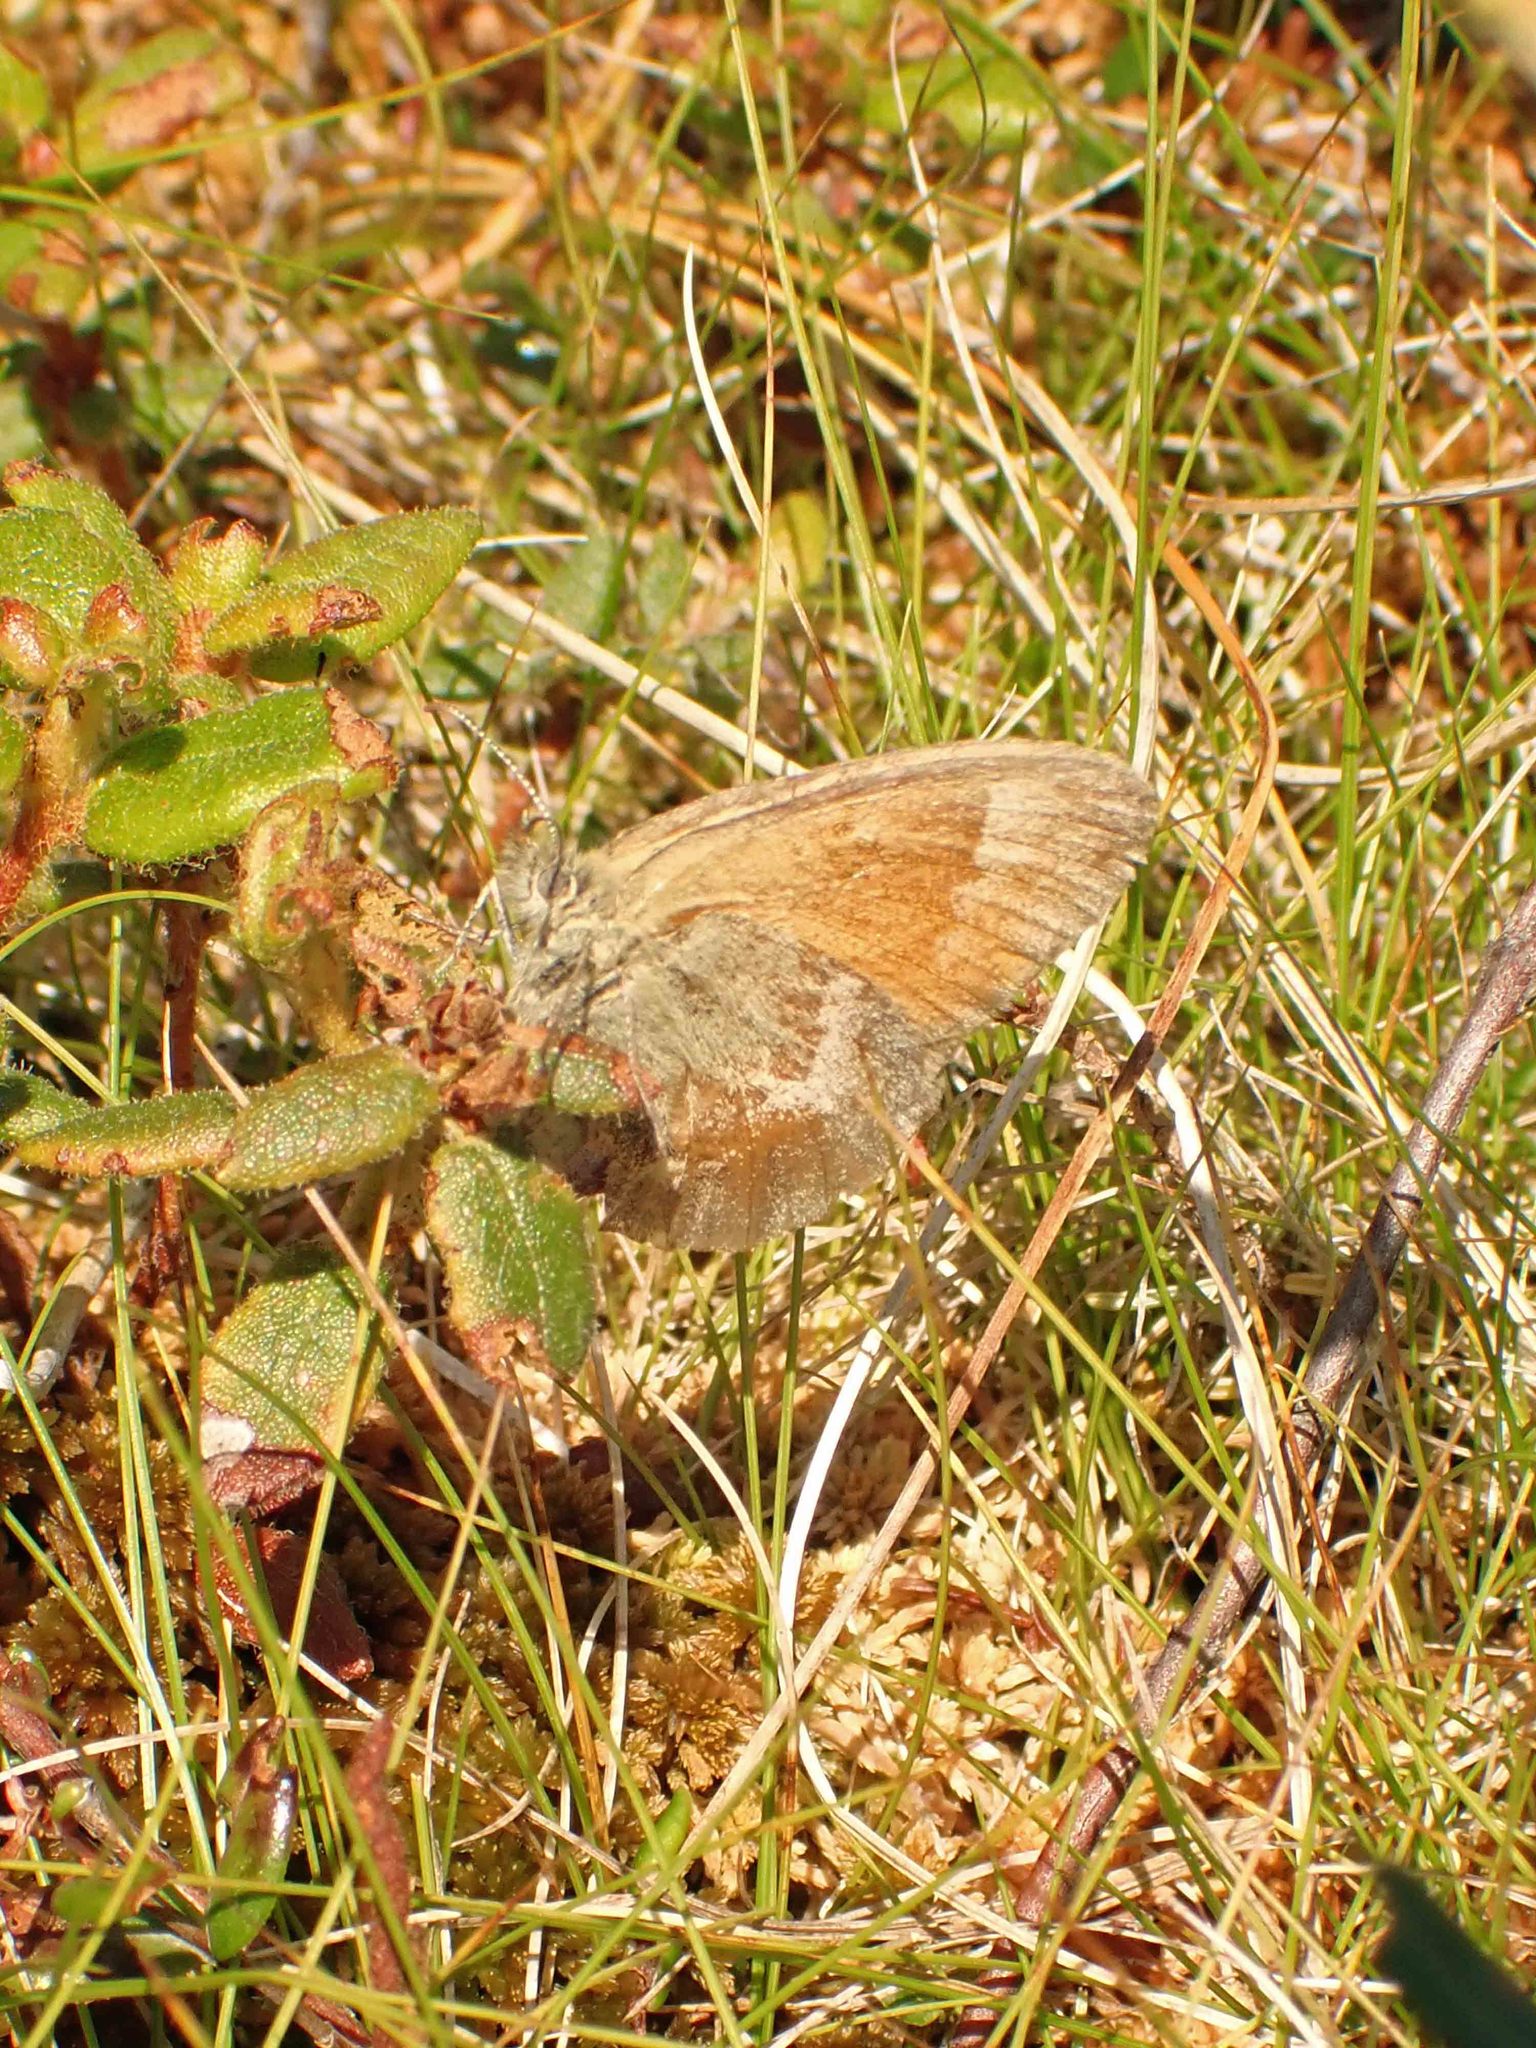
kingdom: Animalia
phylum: Arthropoda
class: Insecta
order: Lepidoptera
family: Nymphalidae
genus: Coenonympha
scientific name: Coenonympha california
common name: Common ringlet
